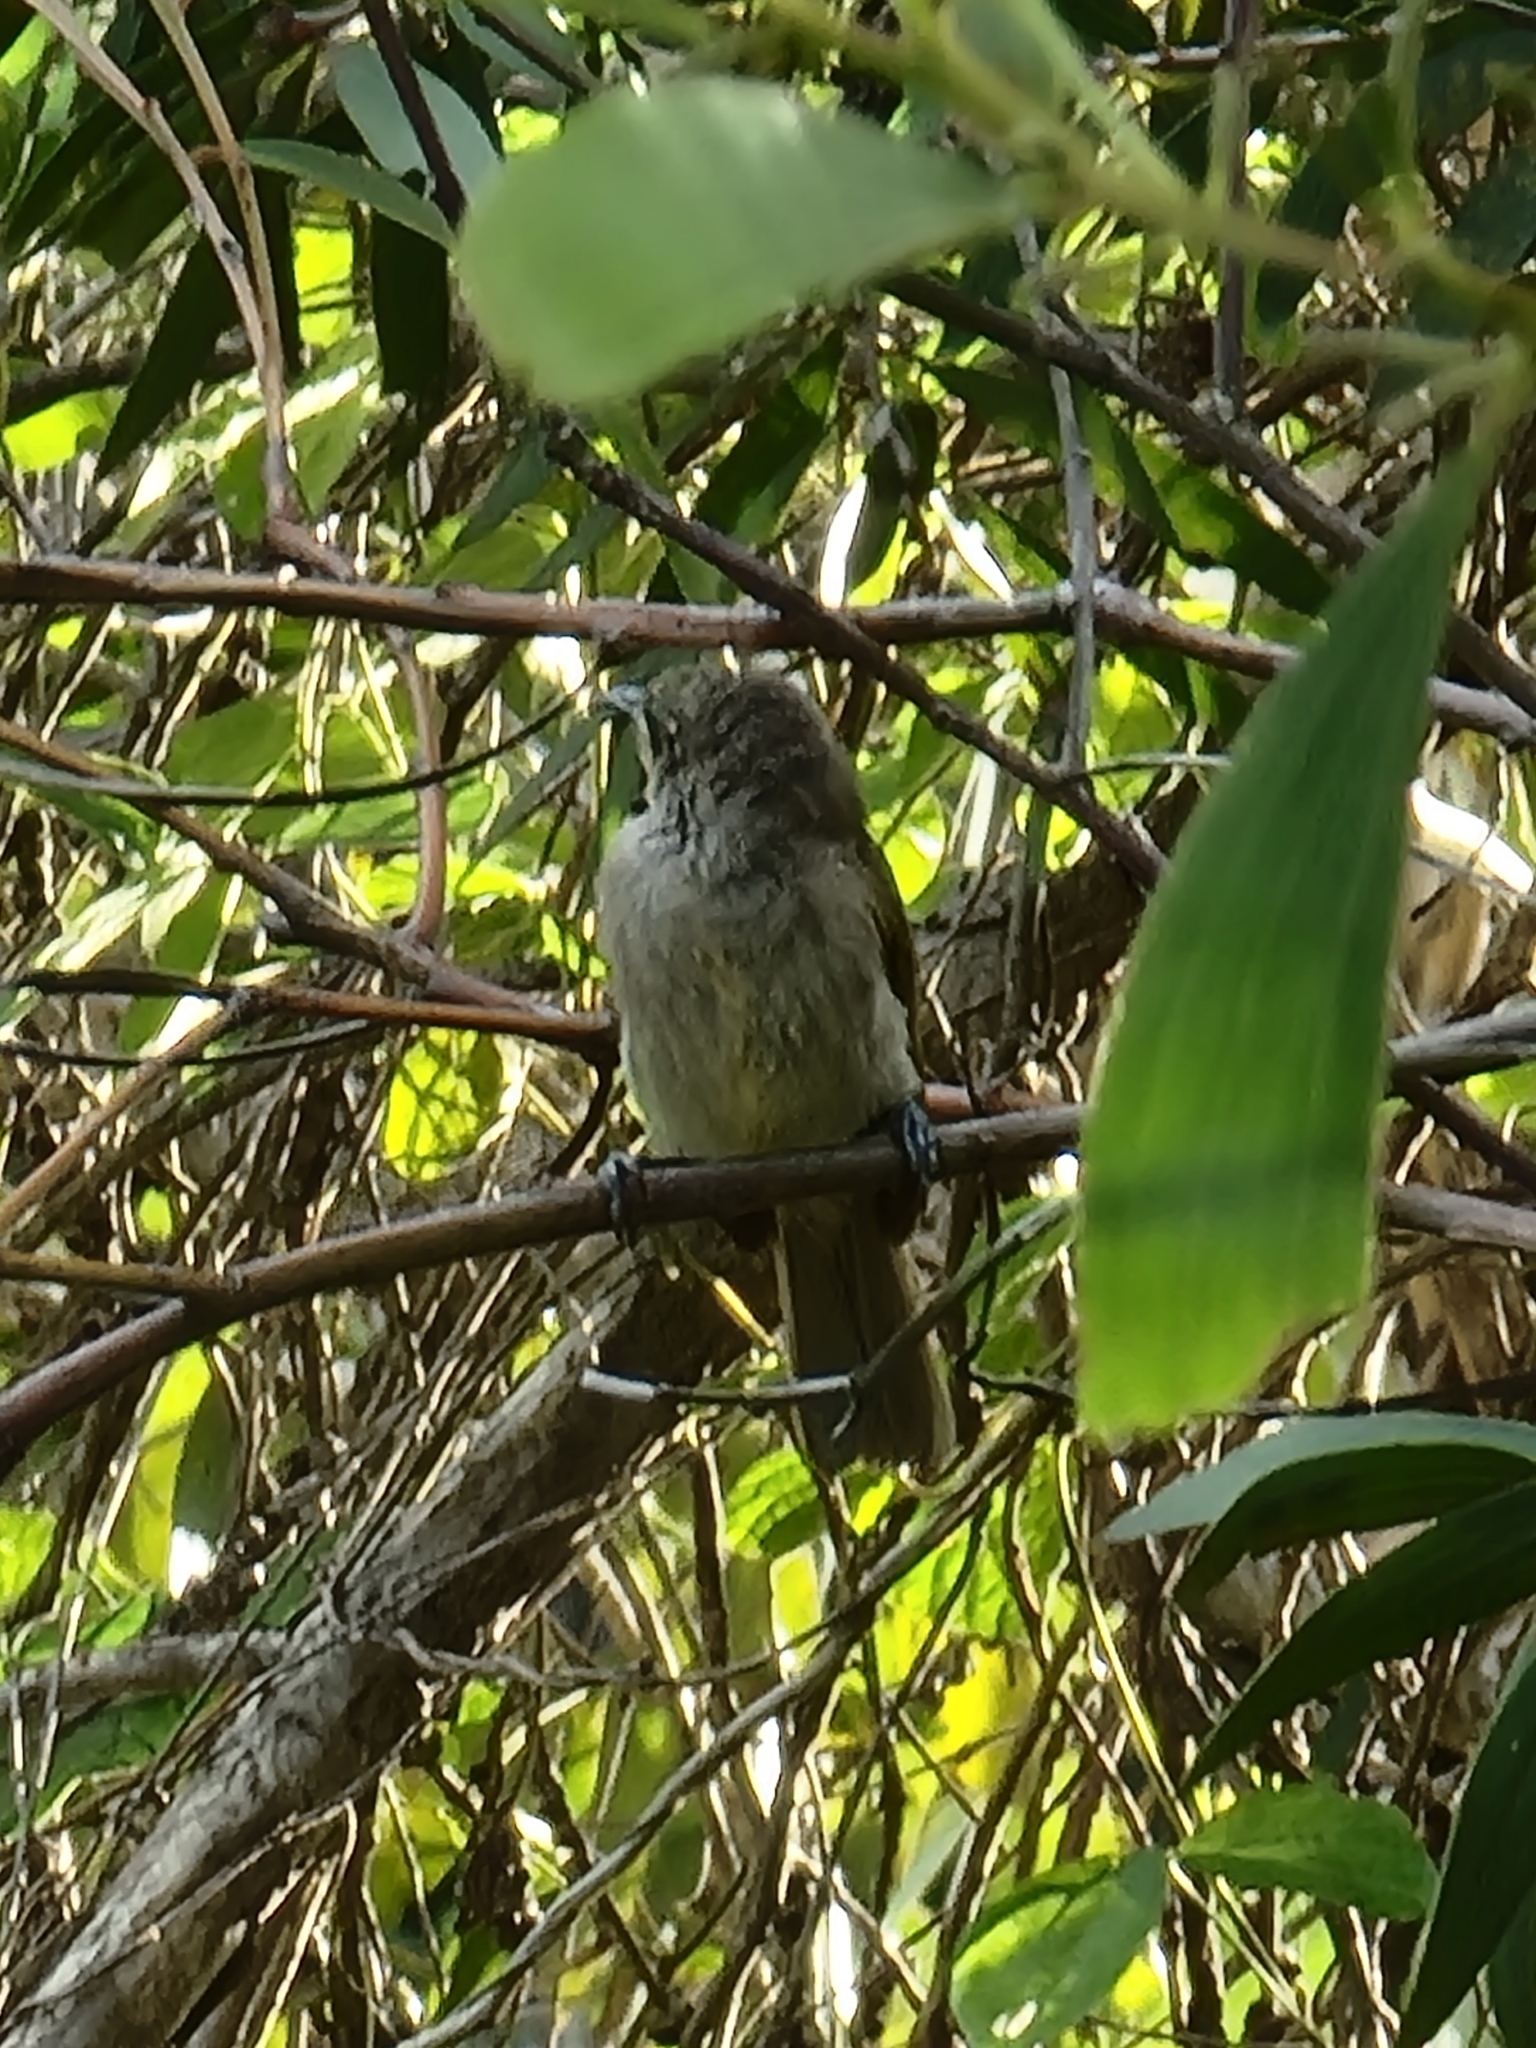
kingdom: Animalia
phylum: Chordata
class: Aves
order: Passeriformes
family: Meliphagidae
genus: Lichmera
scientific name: Lichmera indistincta
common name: Brown honeyeater
